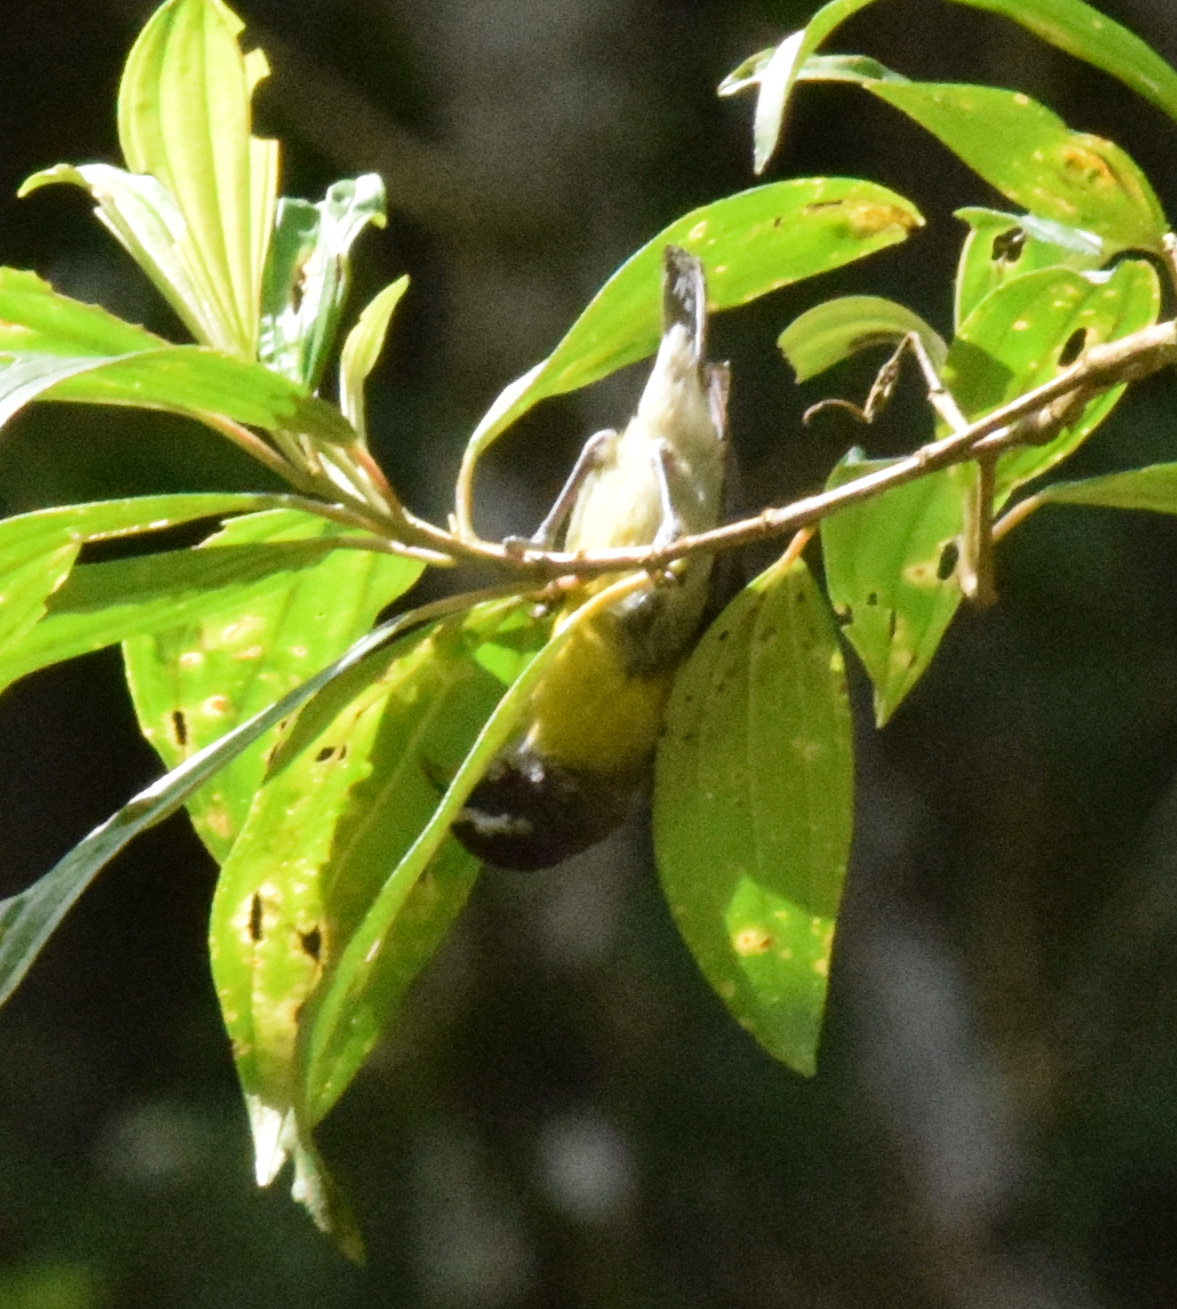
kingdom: Animalia
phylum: Chordata
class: Aves
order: Passeriformes
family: Thraupidae
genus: Coereba
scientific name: Coereba flaveola
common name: Bananaquit
